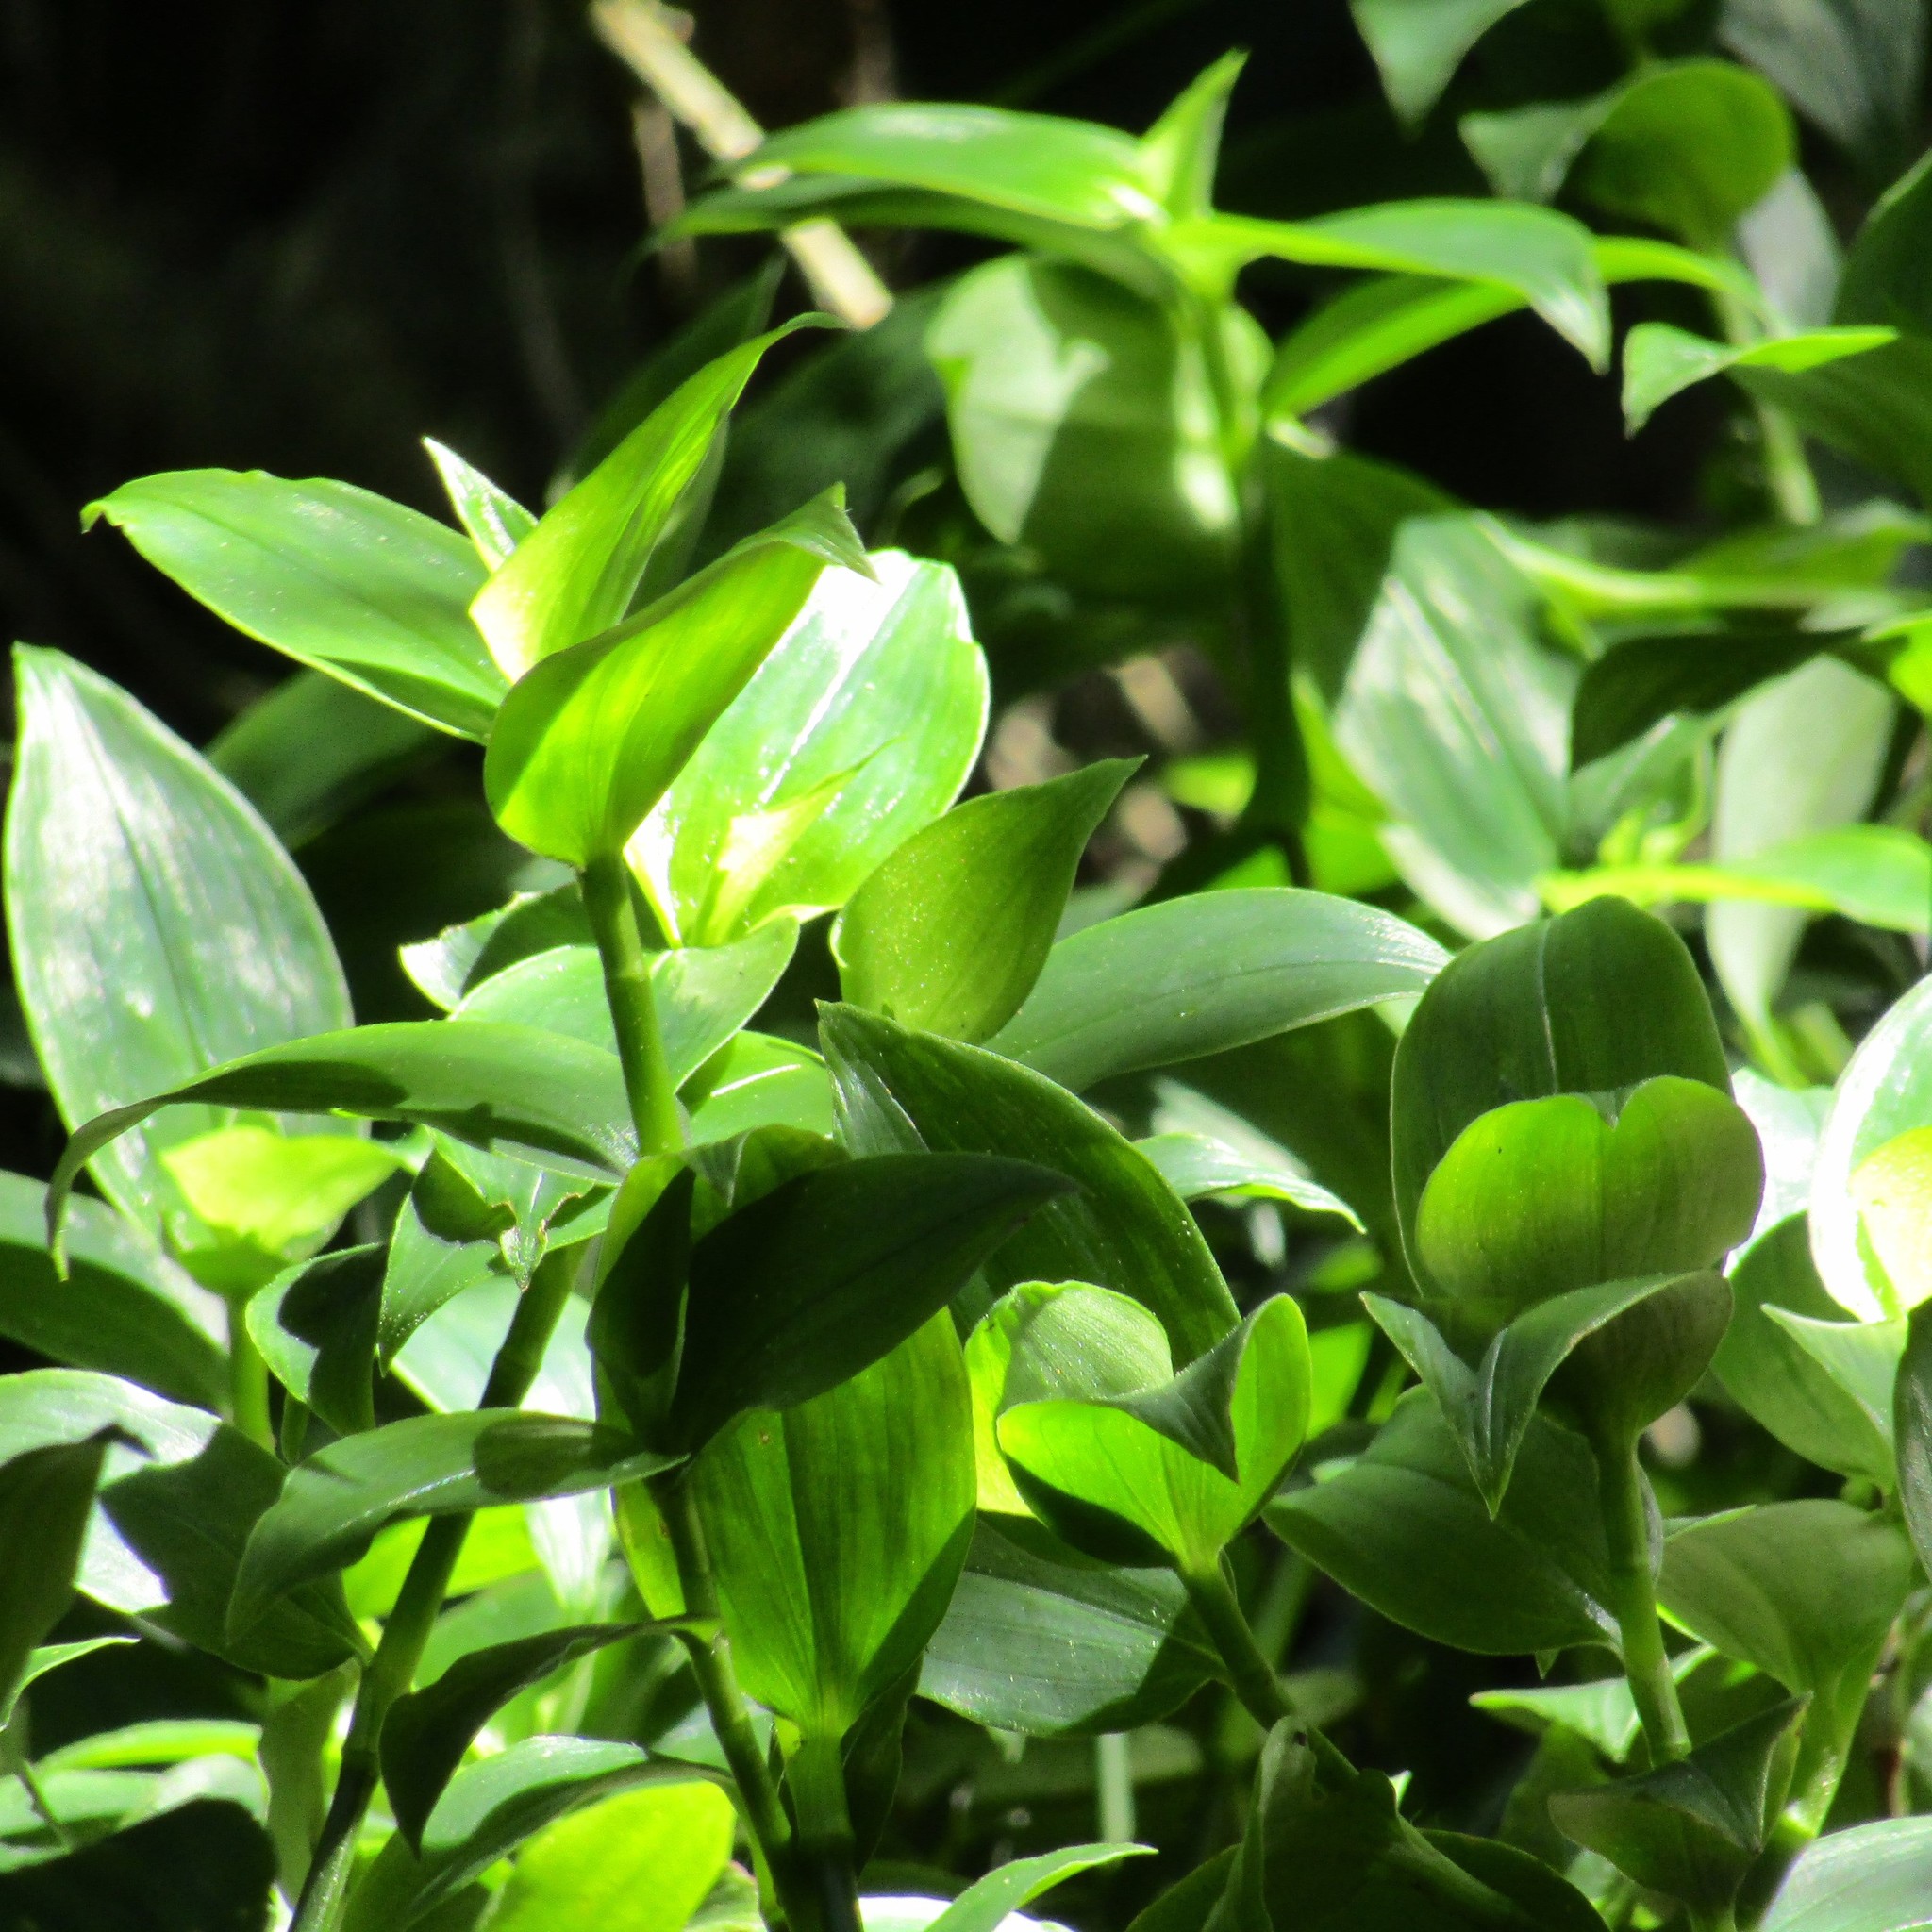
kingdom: Plantae
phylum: Tracheophyta
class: Liliopsida
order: Commelinales
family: Commelinaceae
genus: Tradescantia
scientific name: Tradescantia fluminensis
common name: Wandering-jew
